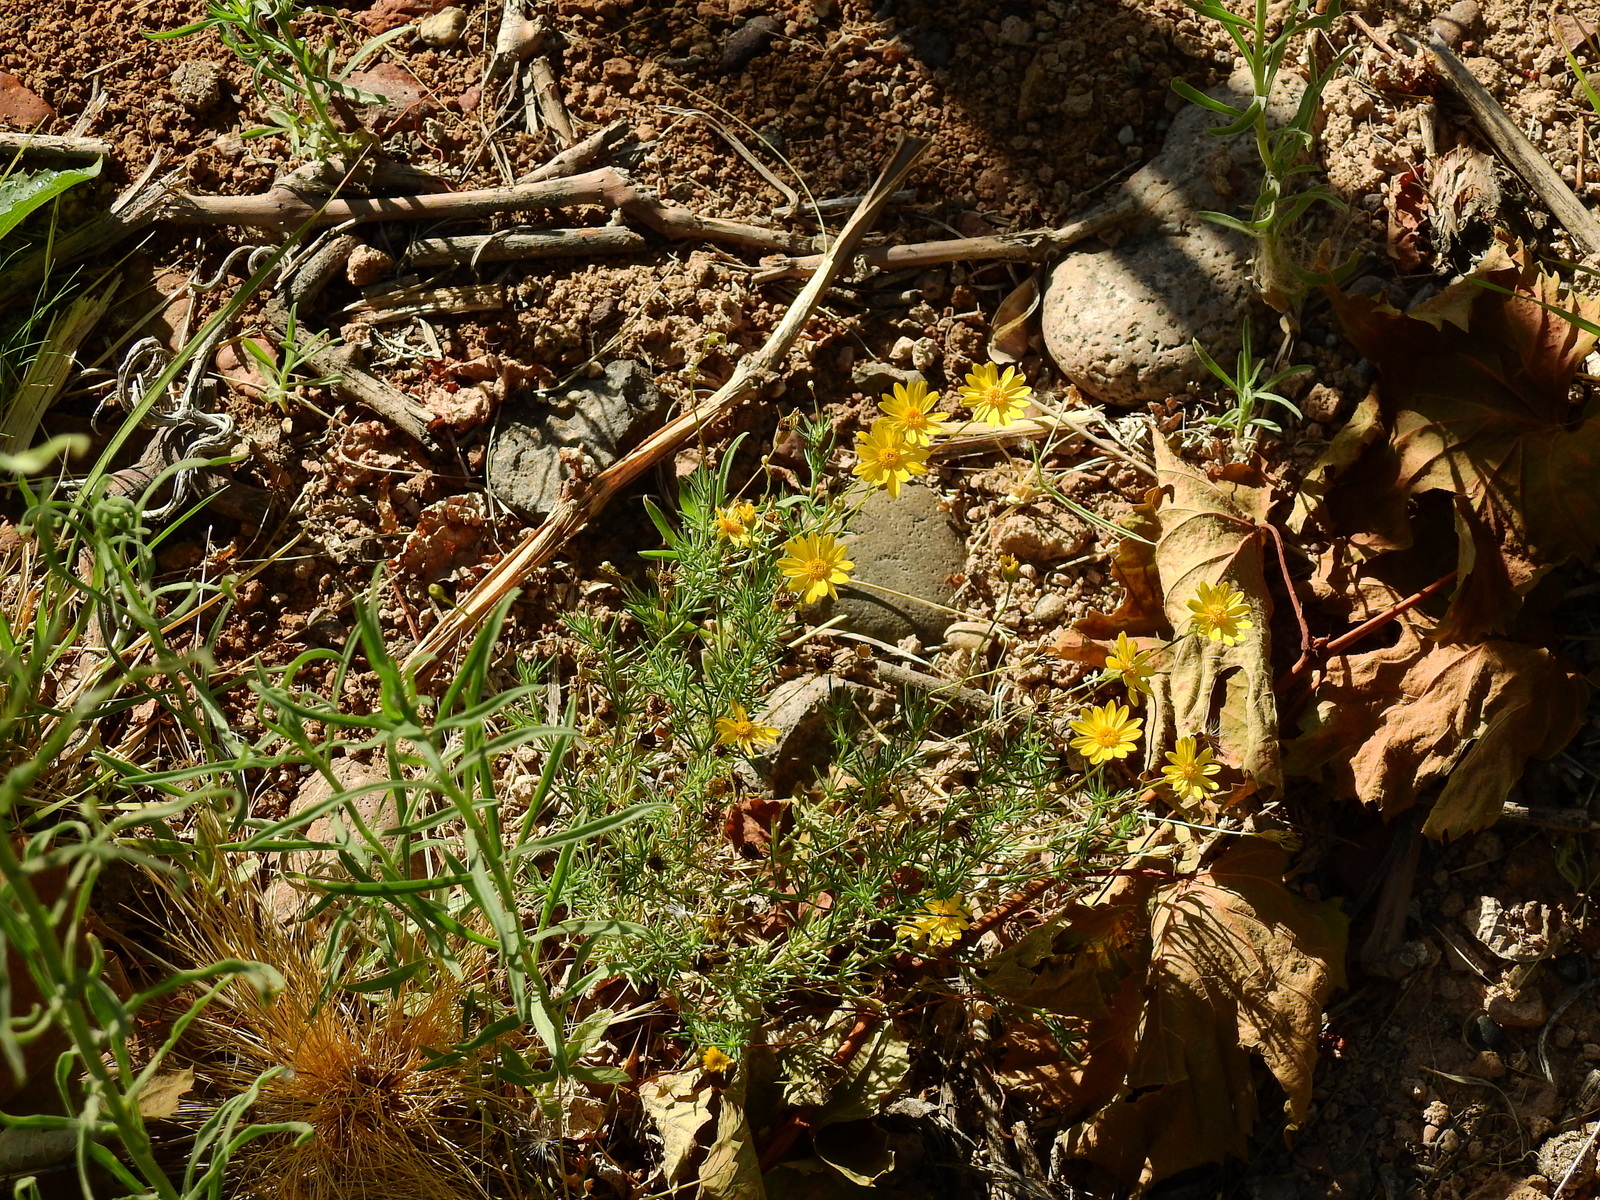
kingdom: Plantae
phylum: Tracheophyta
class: Magnoliopsida
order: Asterales
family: Asteraceae
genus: Thymophylla
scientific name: Thymophylla pentachaeta
